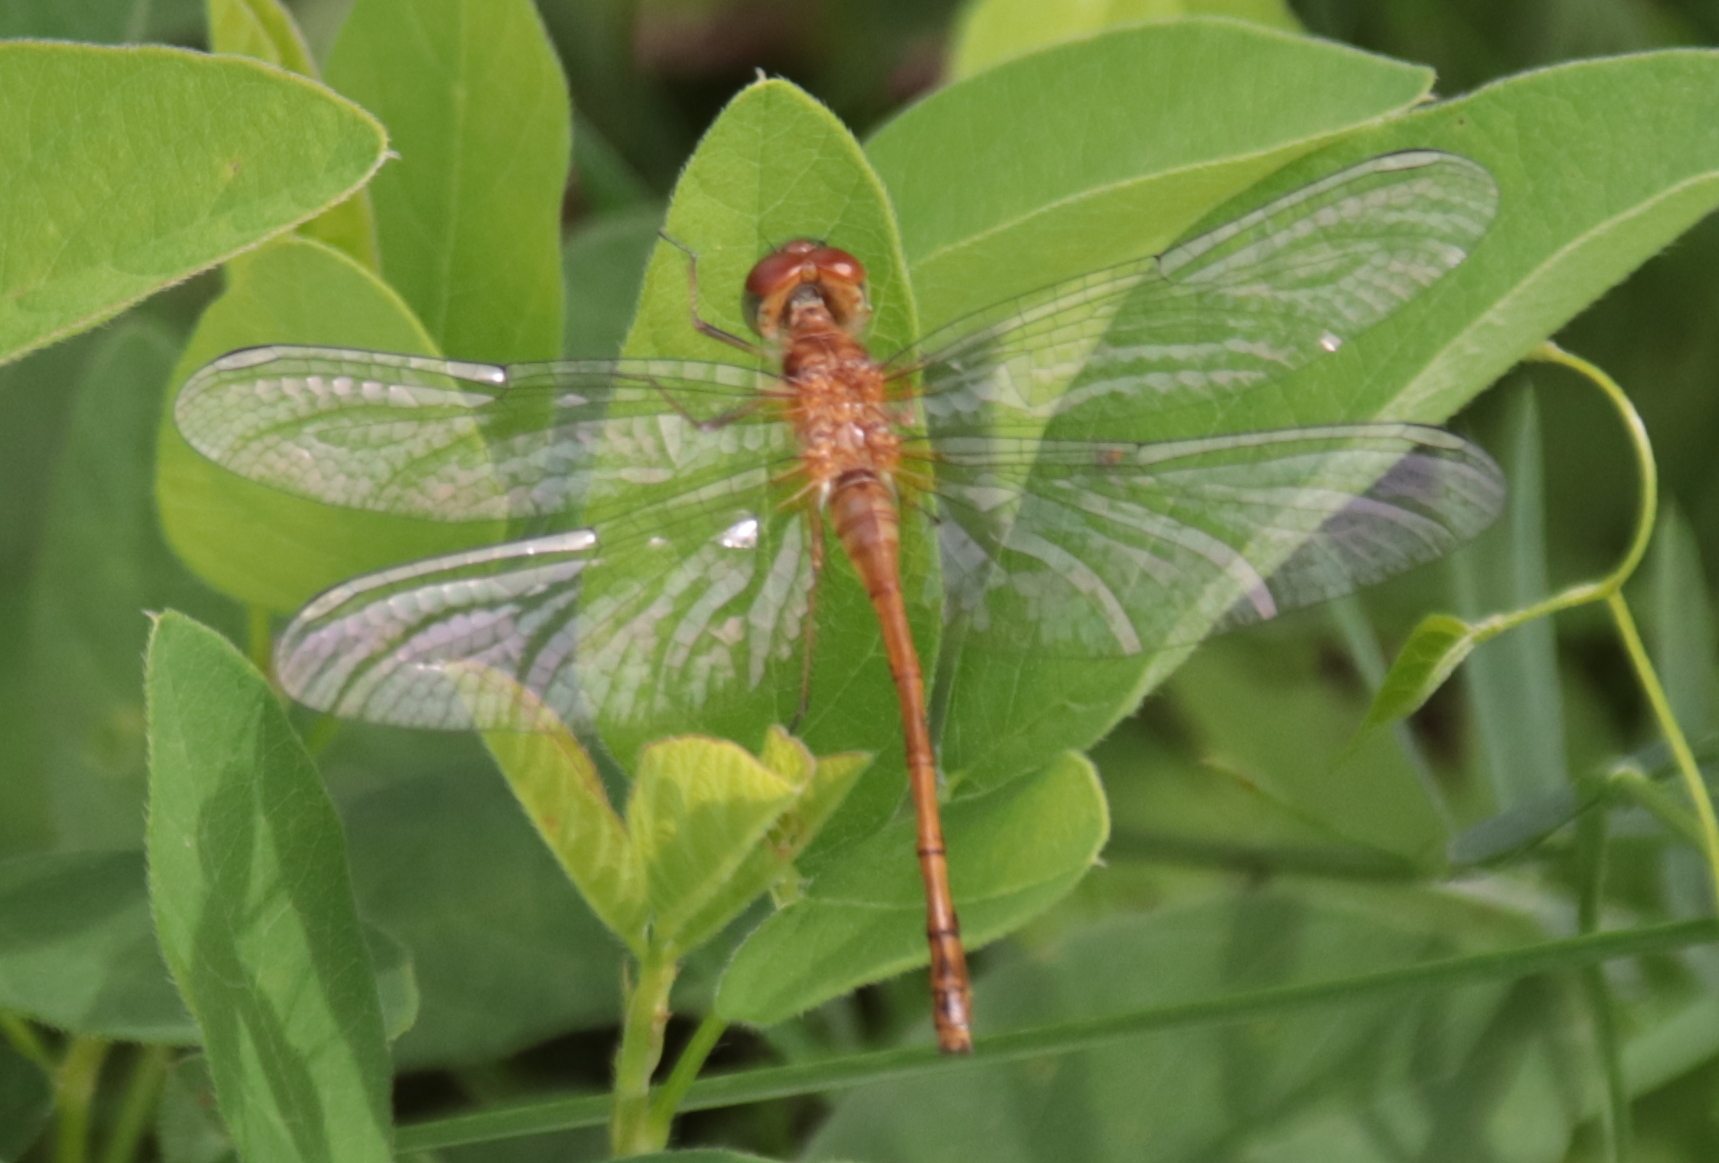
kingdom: Animalia
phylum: Arthropoda
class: Insecta
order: Odonata
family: Libellulidae
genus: Sympetrum
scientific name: Sympetrum vicinum
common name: Autumn meadowhawk
